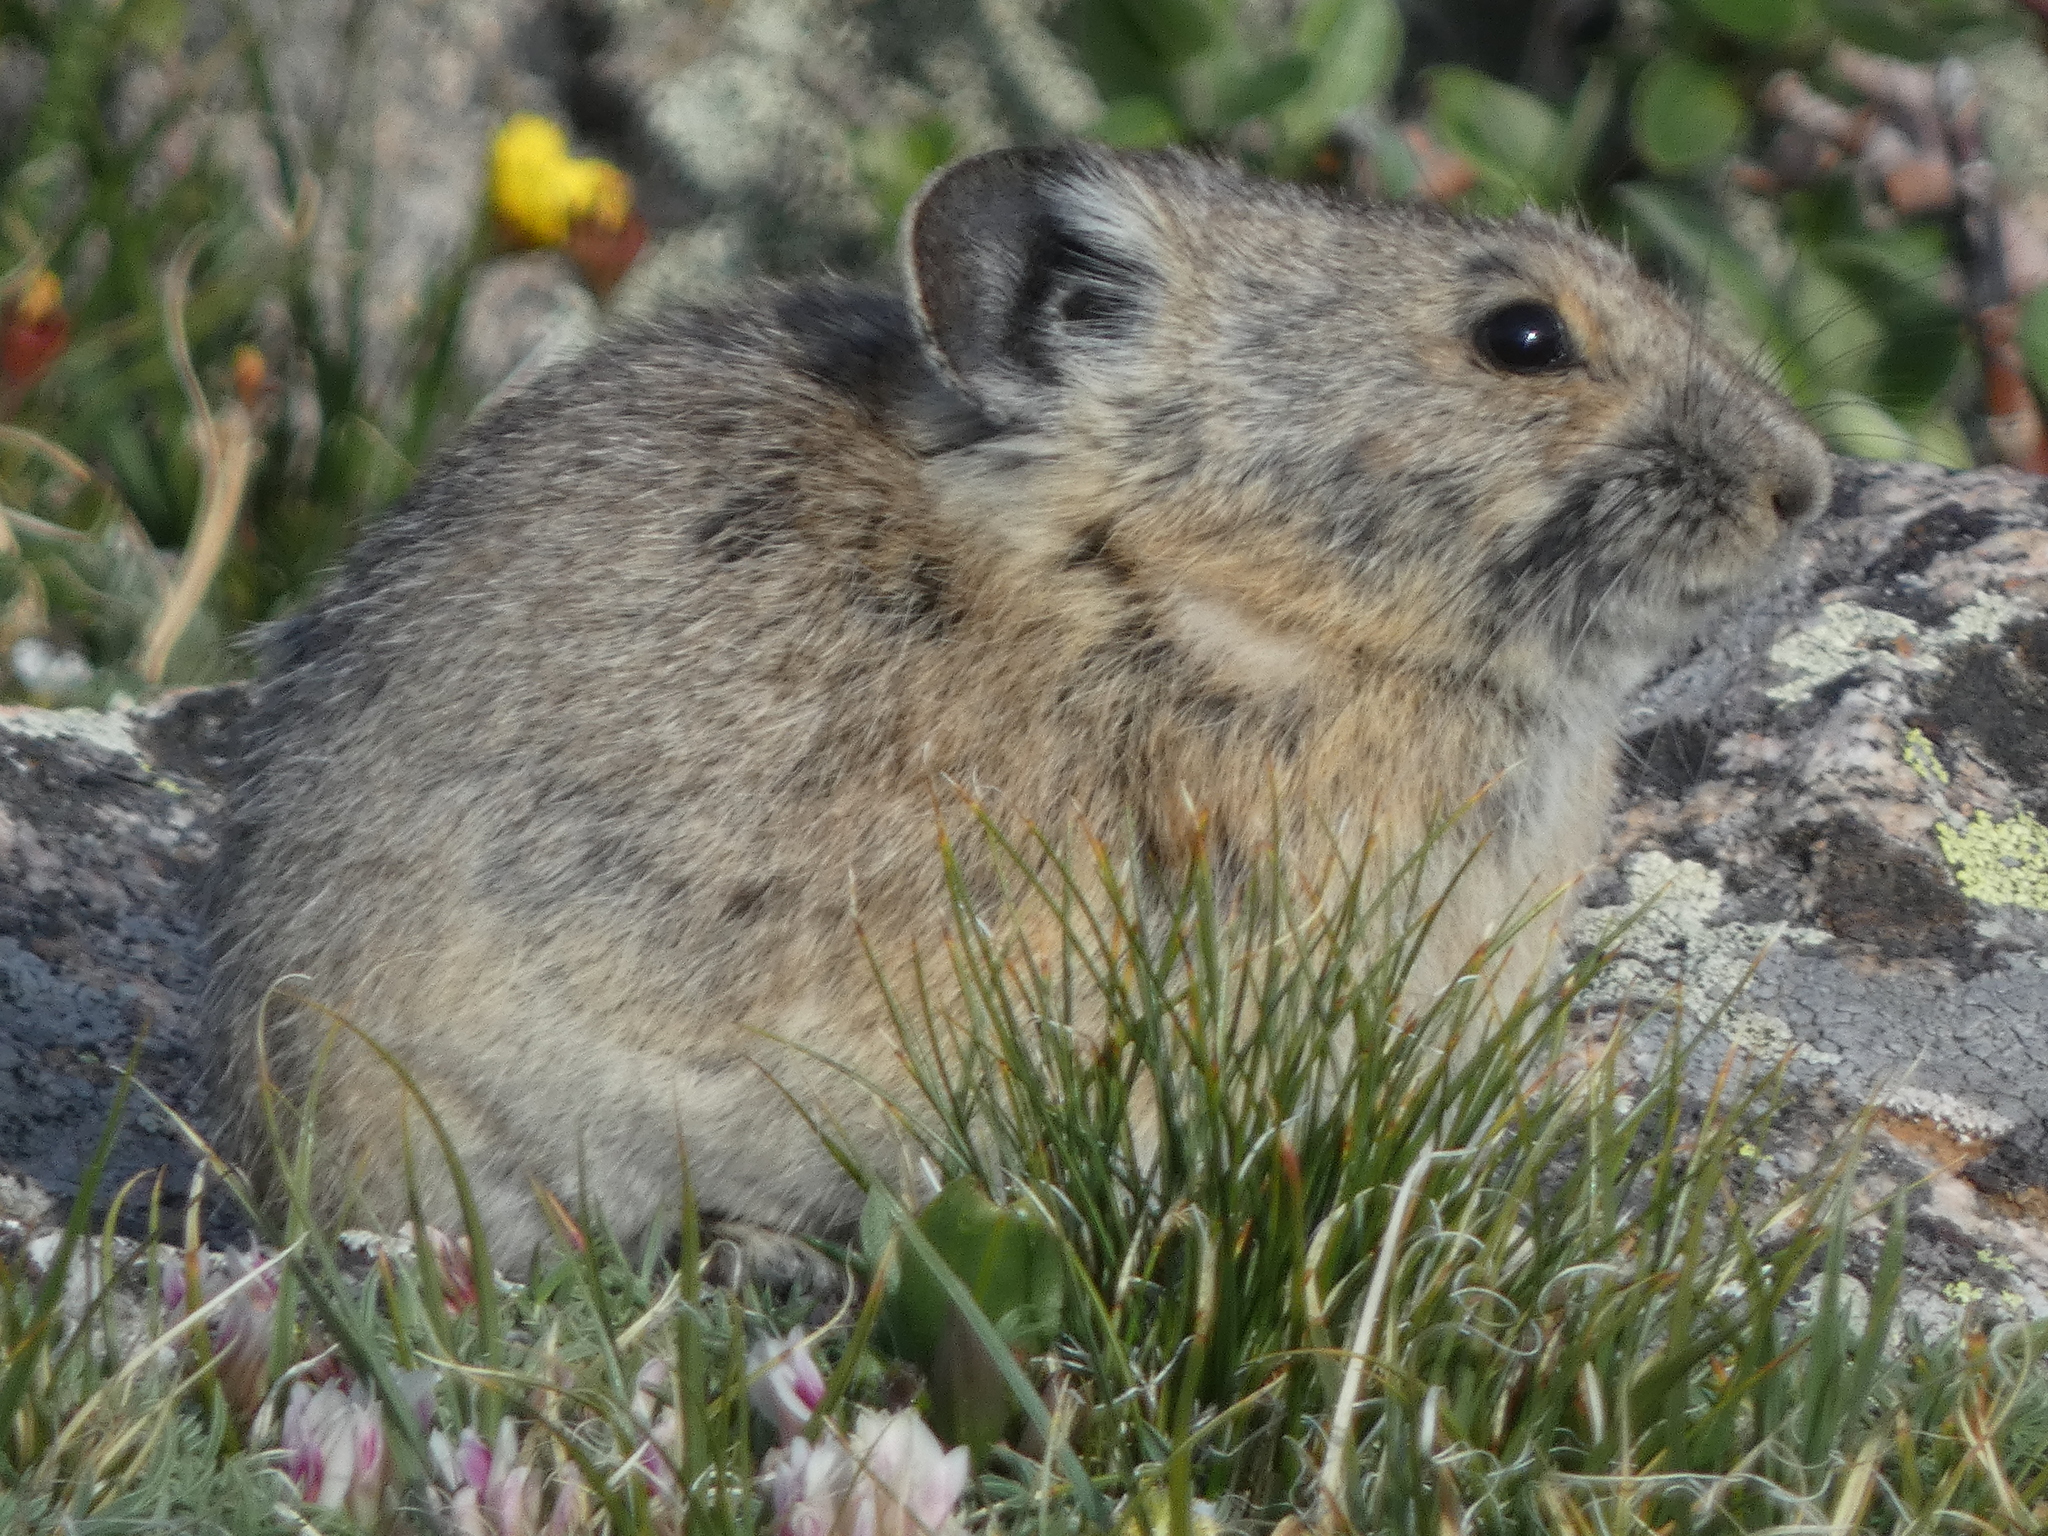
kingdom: Animalia
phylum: Chordata
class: Mammalia
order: Lagomorpha
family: Ochotonidae
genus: Ochotona
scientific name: Ochotona princeps
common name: American pika
